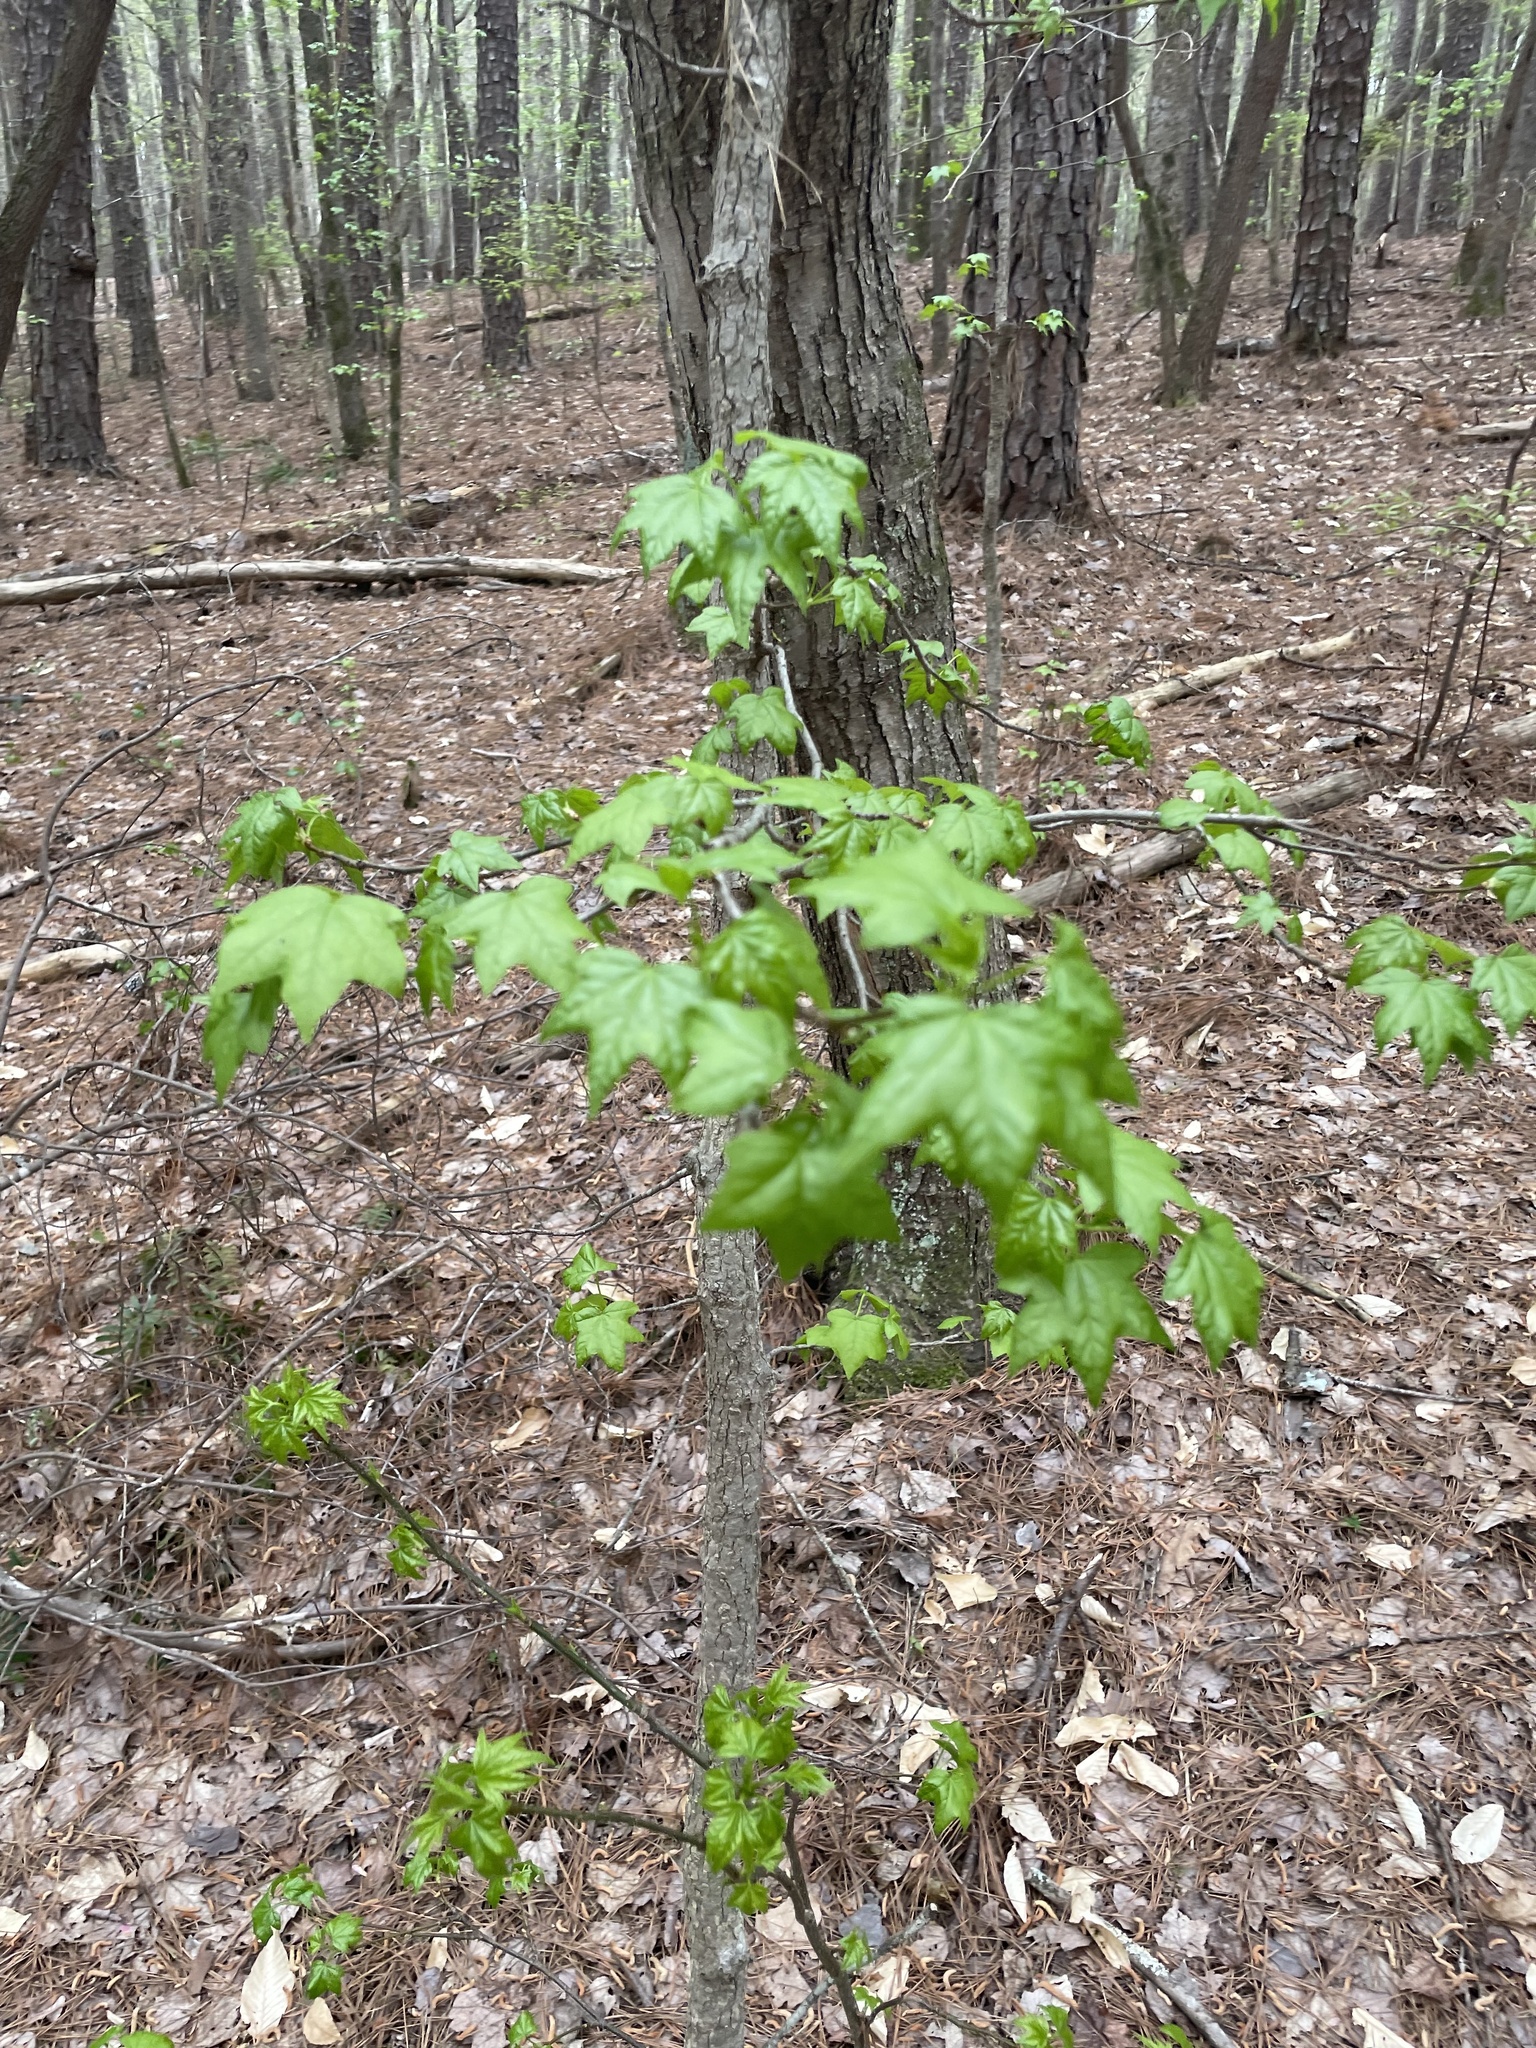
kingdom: Plantae
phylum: Tracheophyta
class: Magnoliopsida
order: Saxifragales
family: Altingiaceae
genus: Liquidambar
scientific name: Liquidambar styraciflua
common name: Sweet gum
